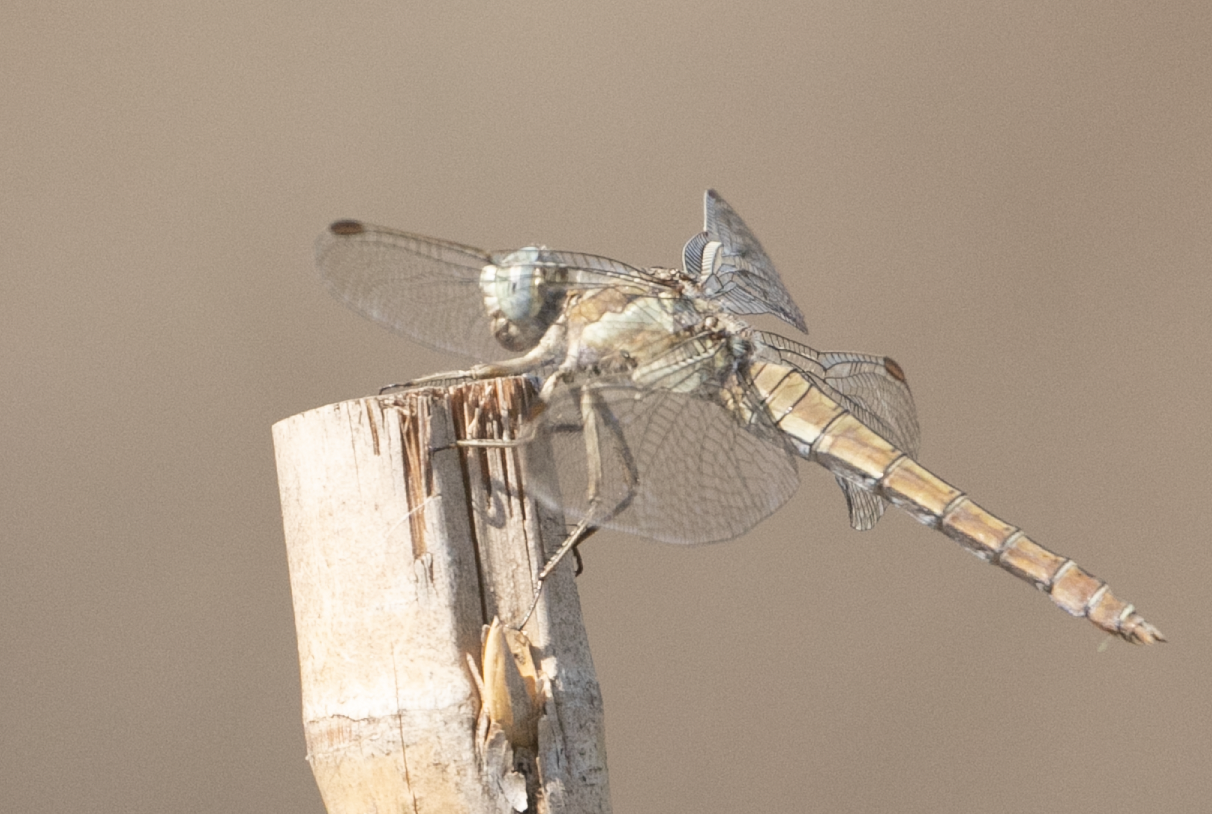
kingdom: Animalia
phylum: Arthropoda
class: Insecta
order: Odonata
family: Libellulidae
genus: Orthetrum
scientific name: Orthetrum brunneum
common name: Southern skimmer
